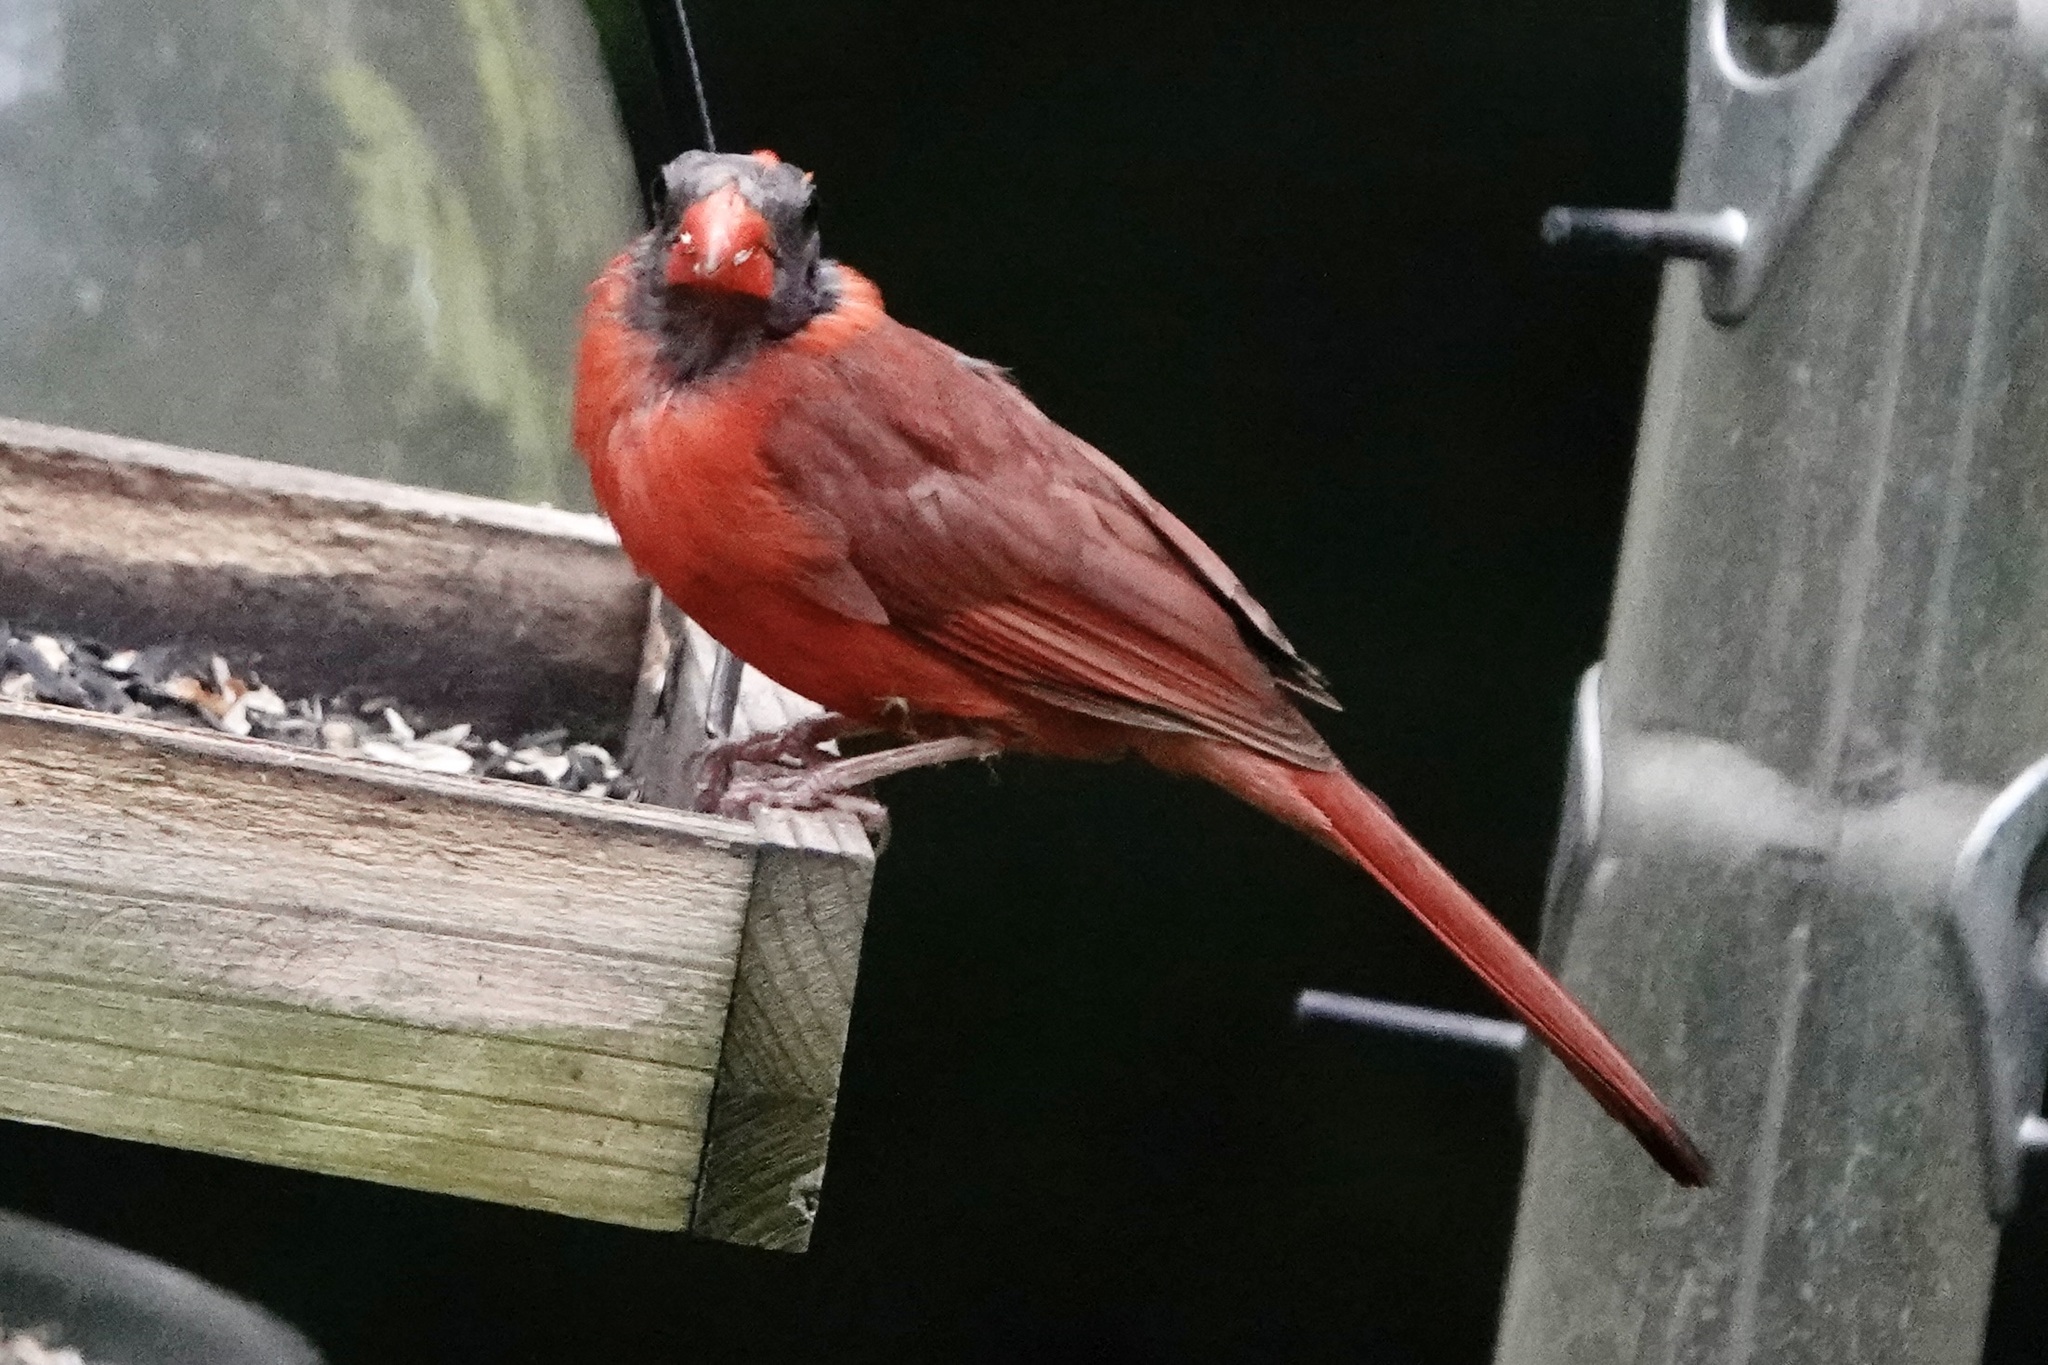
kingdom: Animalia
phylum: Chordata
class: Aves
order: Passeriformes
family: Cardinalidae
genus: Cardinalis
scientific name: Cardinalis cardinalis
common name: Northern cardinal
